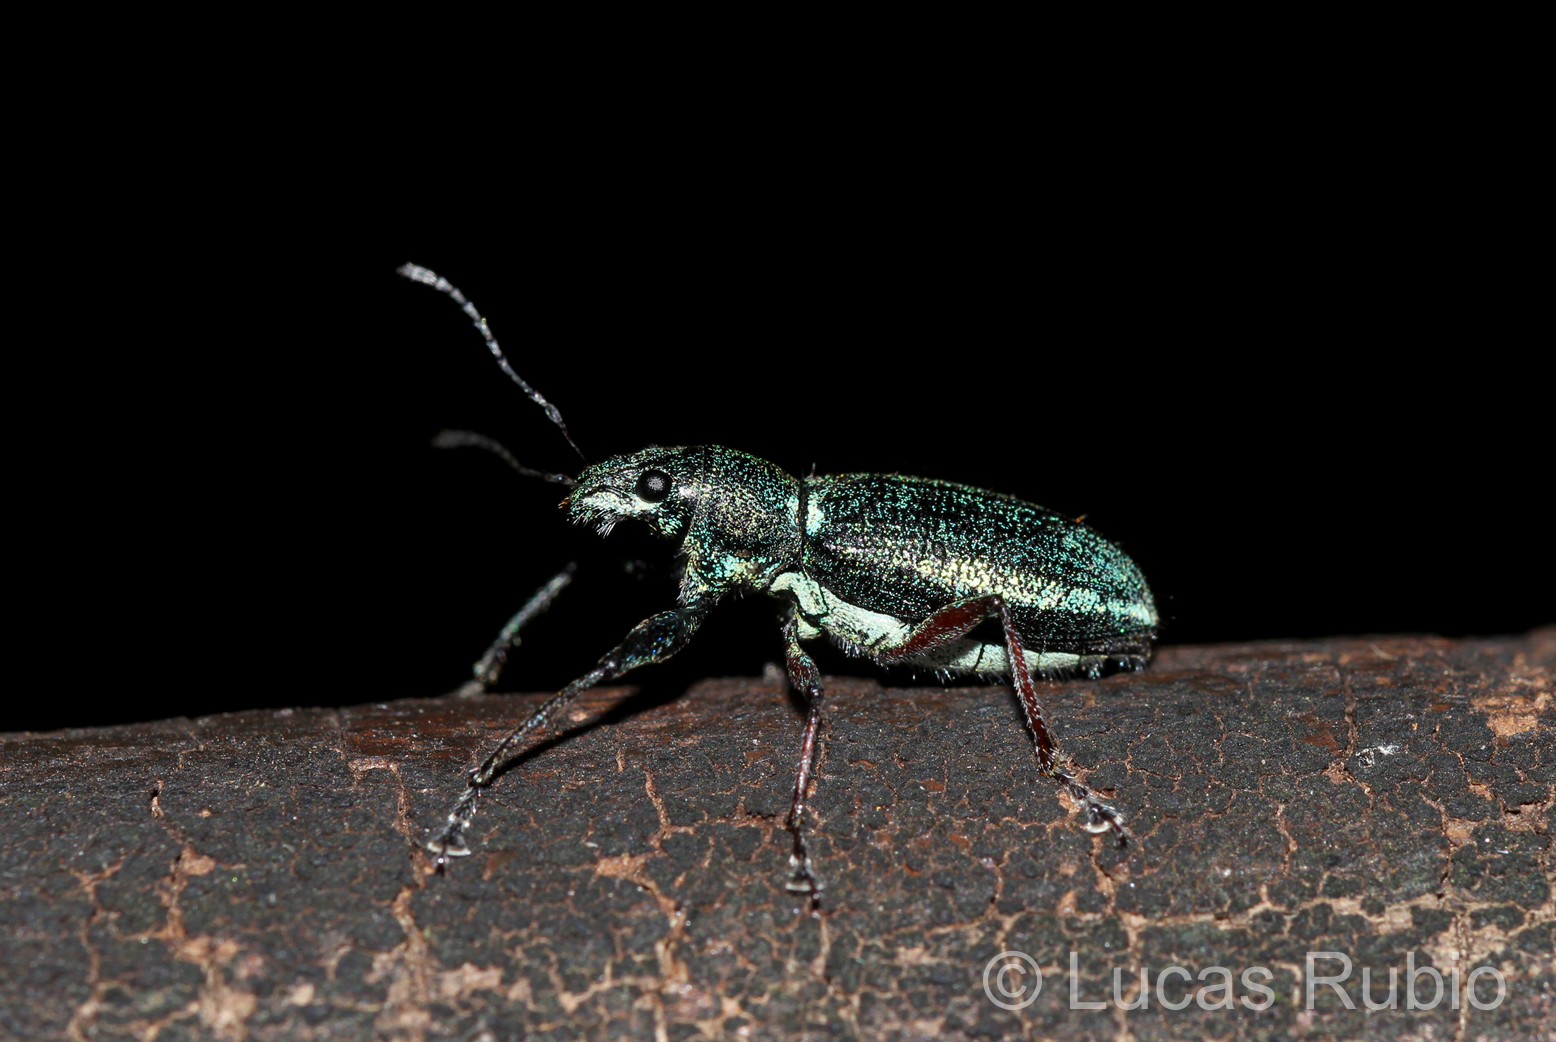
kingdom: Animalia
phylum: Arthropoda
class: Insecta
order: Coleoptera
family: Curculionidae
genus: Naupactus
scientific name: Naupactus auricinctus
